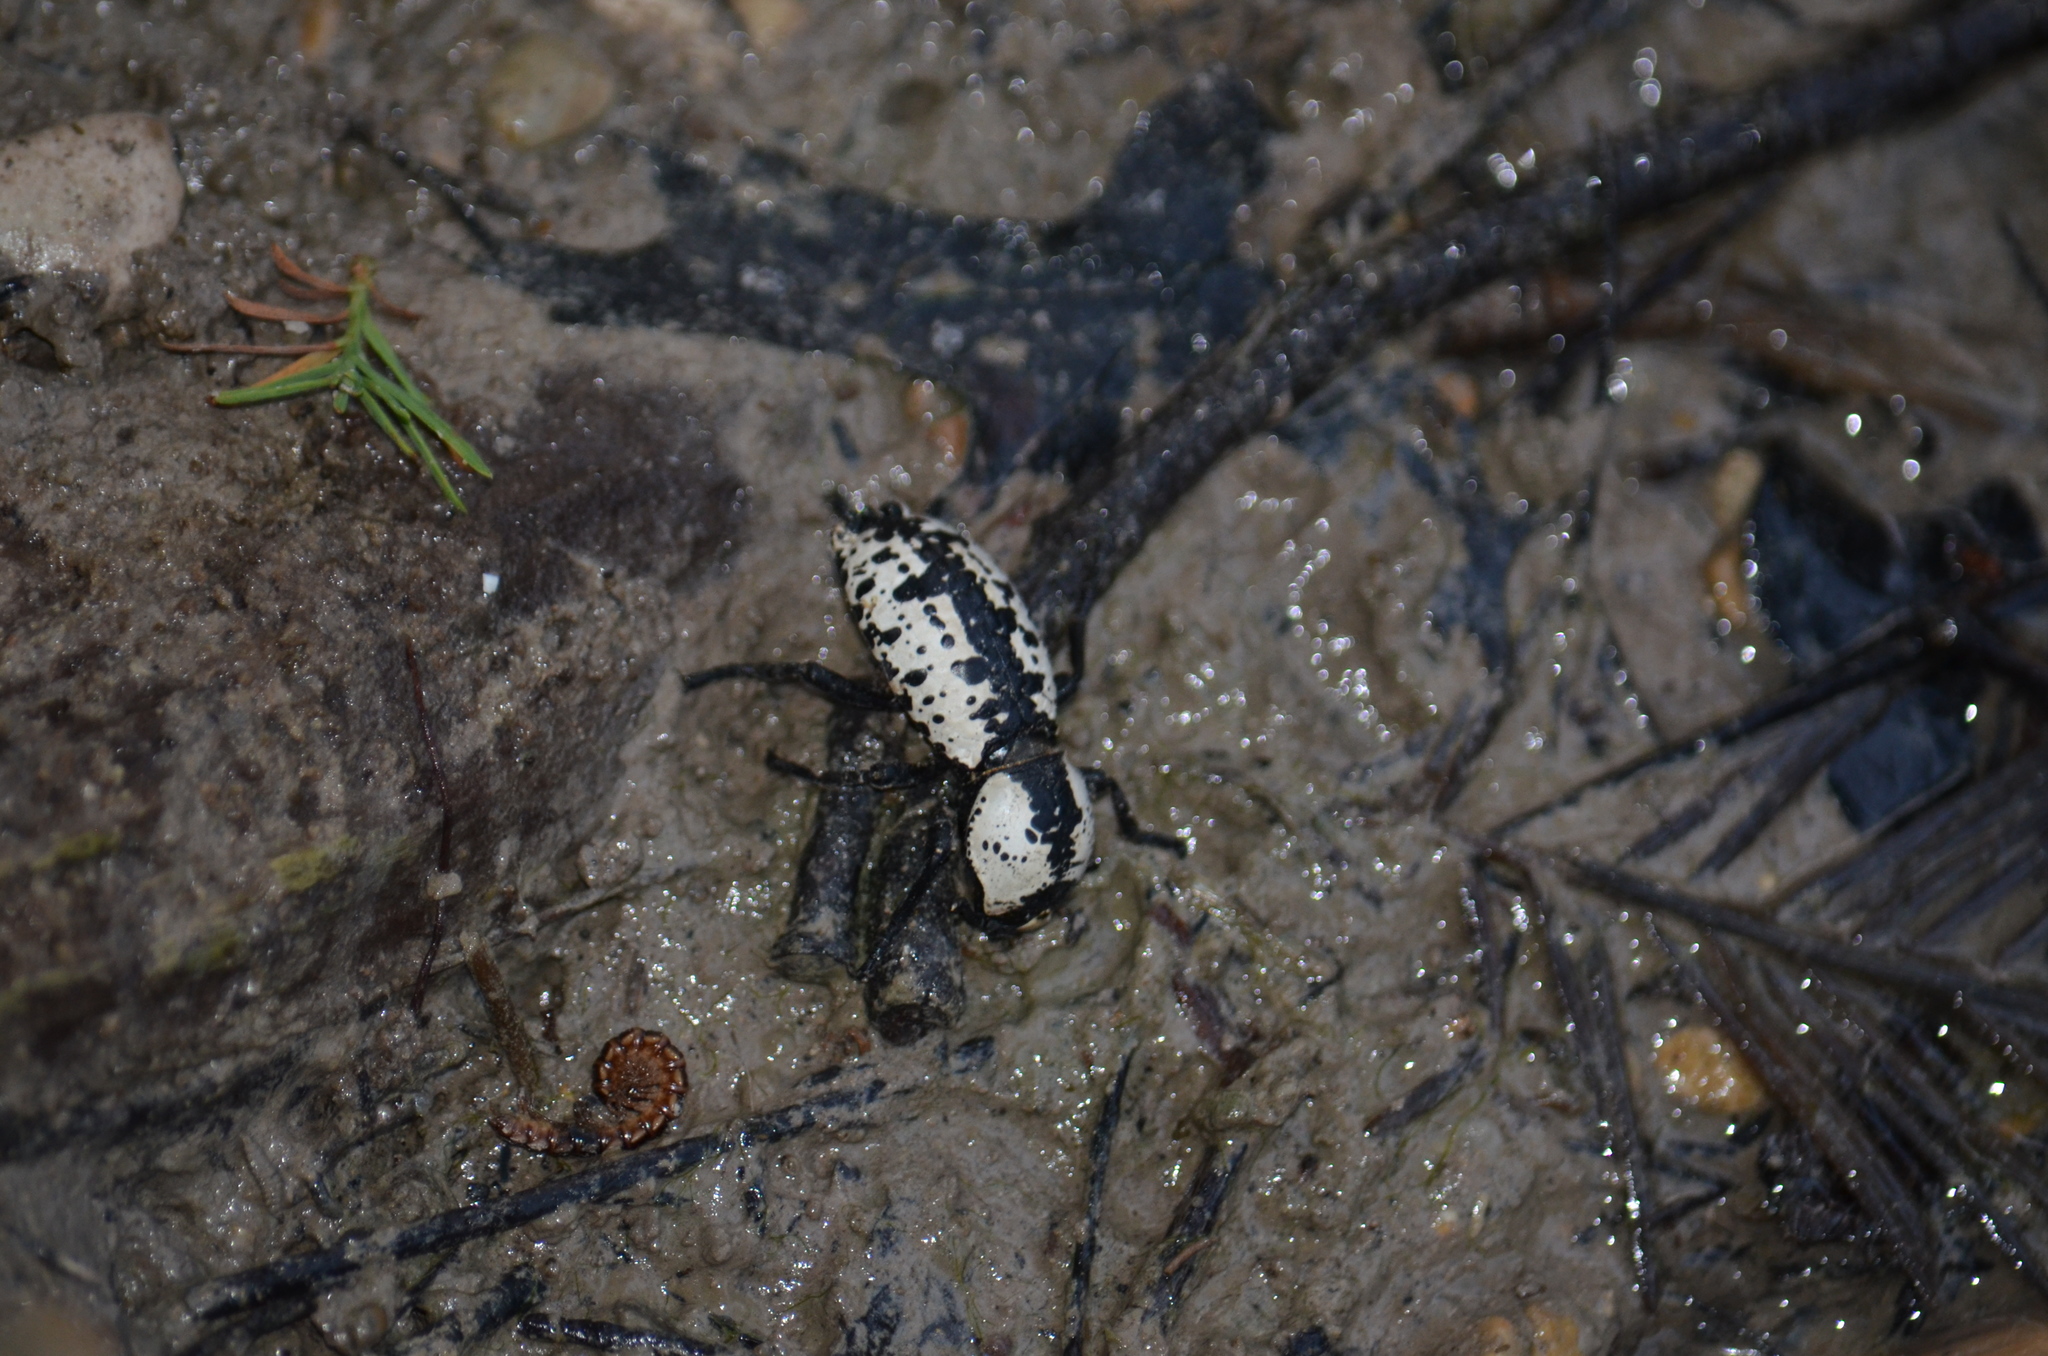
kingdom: Animalia
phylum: Arthropoda
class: Insecta
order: Coleoptera
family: Zopheridae
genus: Zopherus
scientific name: Zopherus nodulosus
